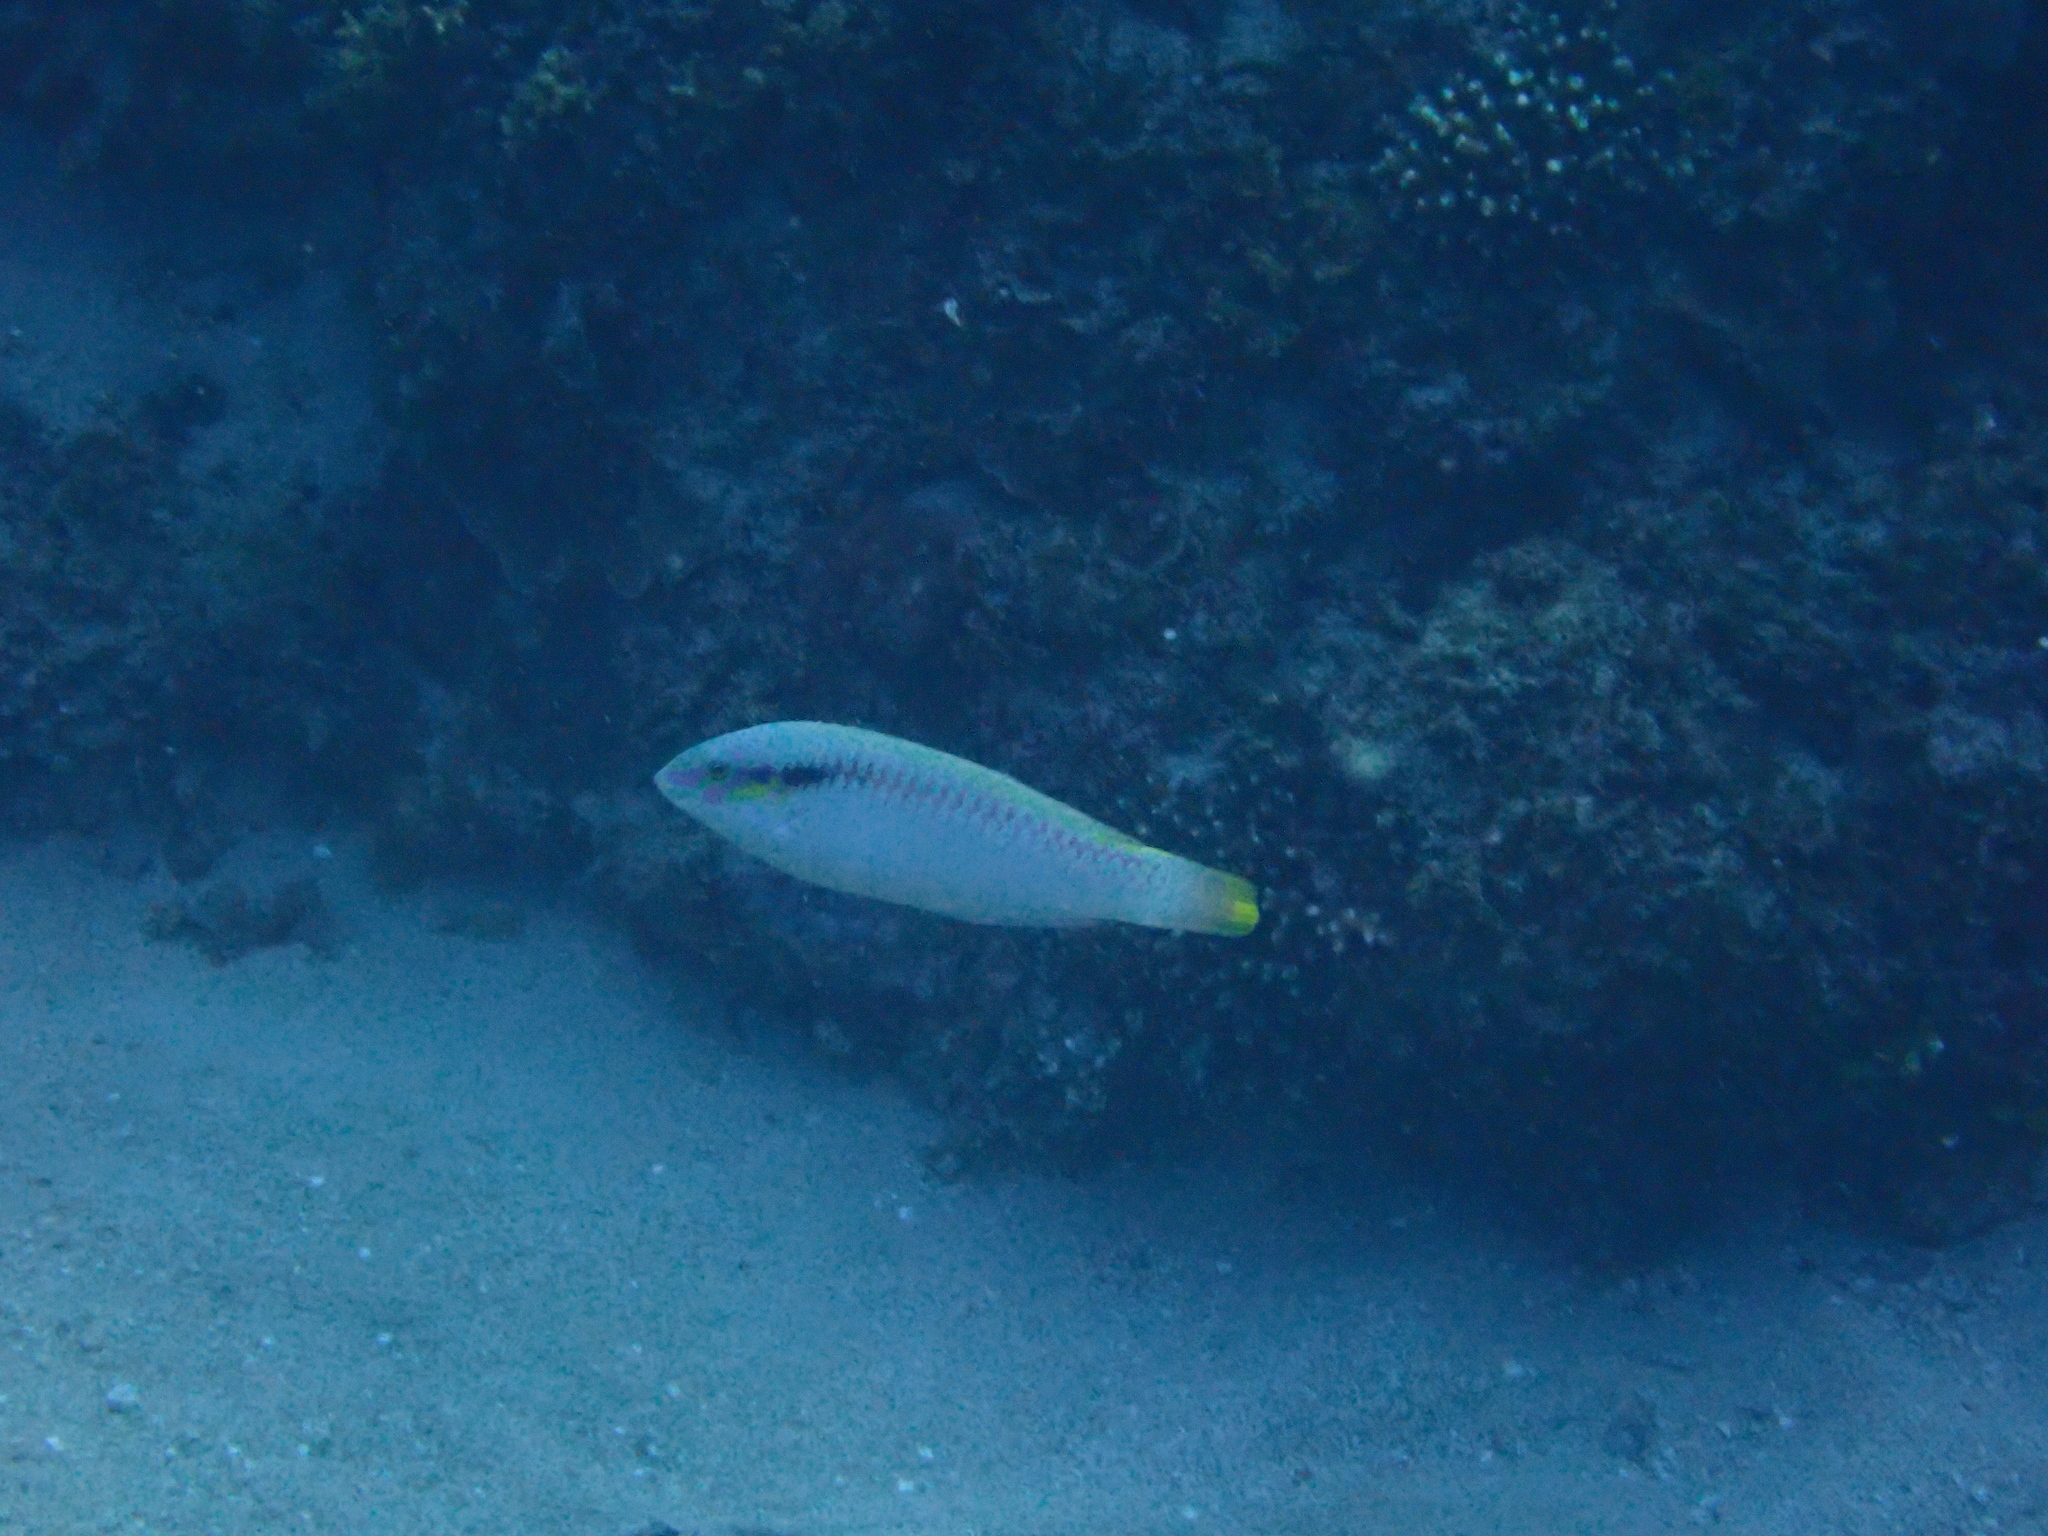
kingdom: Animalia
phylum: Chordata
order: Perciformes
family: Labridae
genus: Halichoeres
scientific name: Halichoeres scapularis
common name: Brownbanded wrasse
